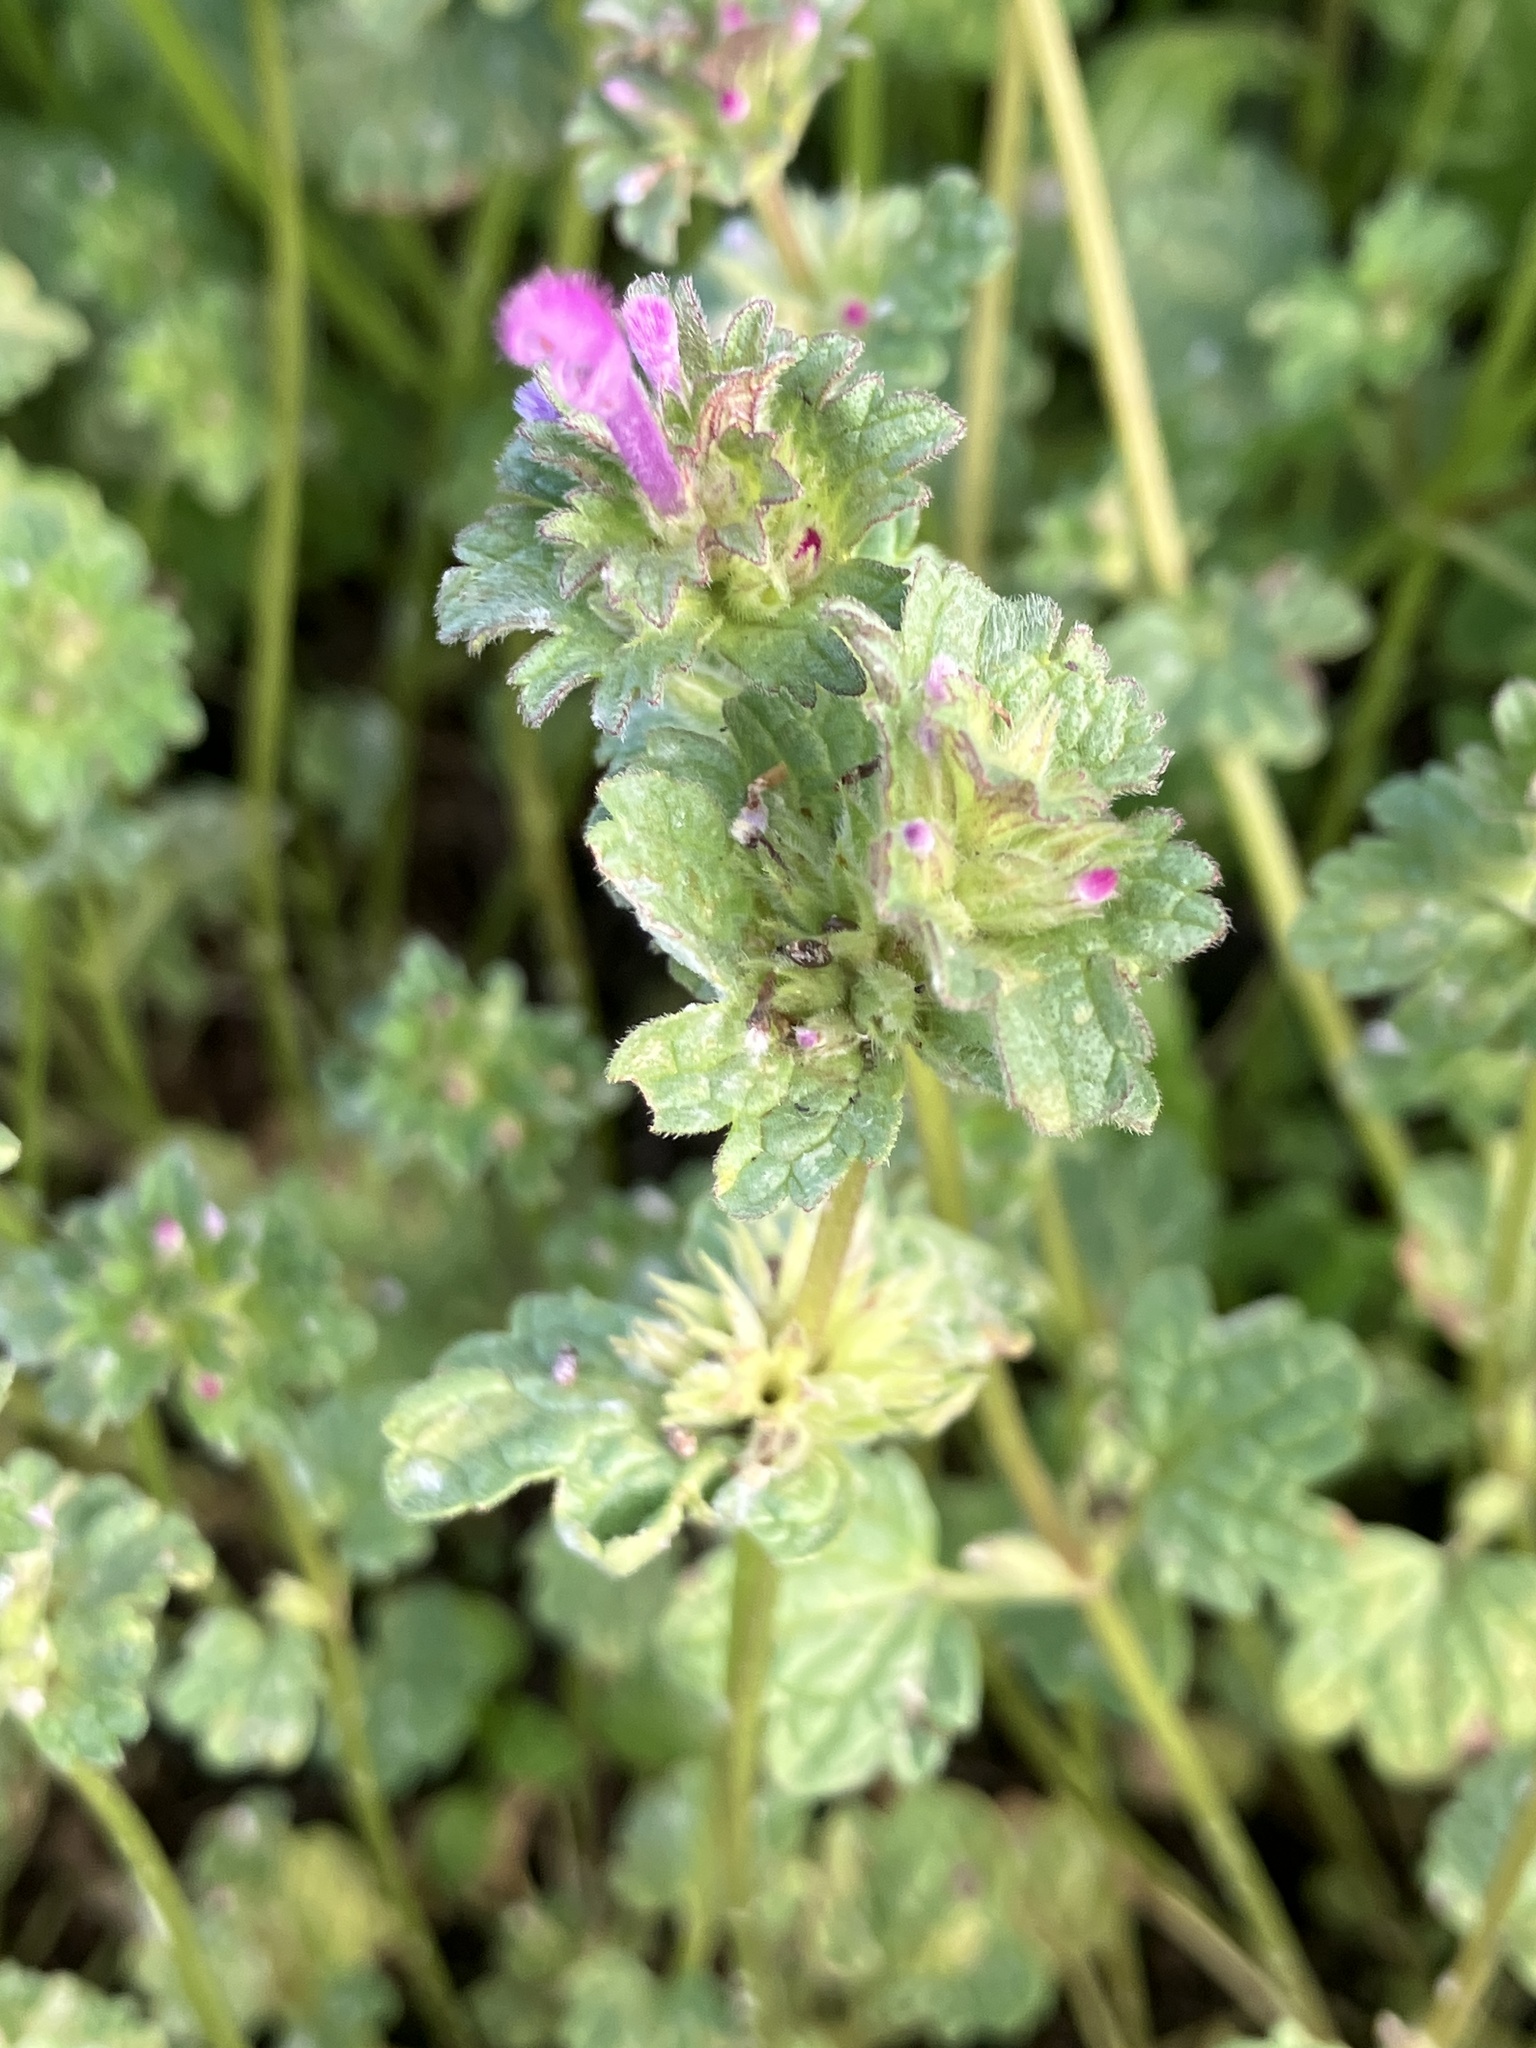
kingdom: Plantae
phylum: Tracheophyta
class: Magnoliopsida
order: Lamiales
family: Lamiaceae
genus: Lamium
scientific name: Lamium amplexicaule
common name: Henbit dead-nettle
